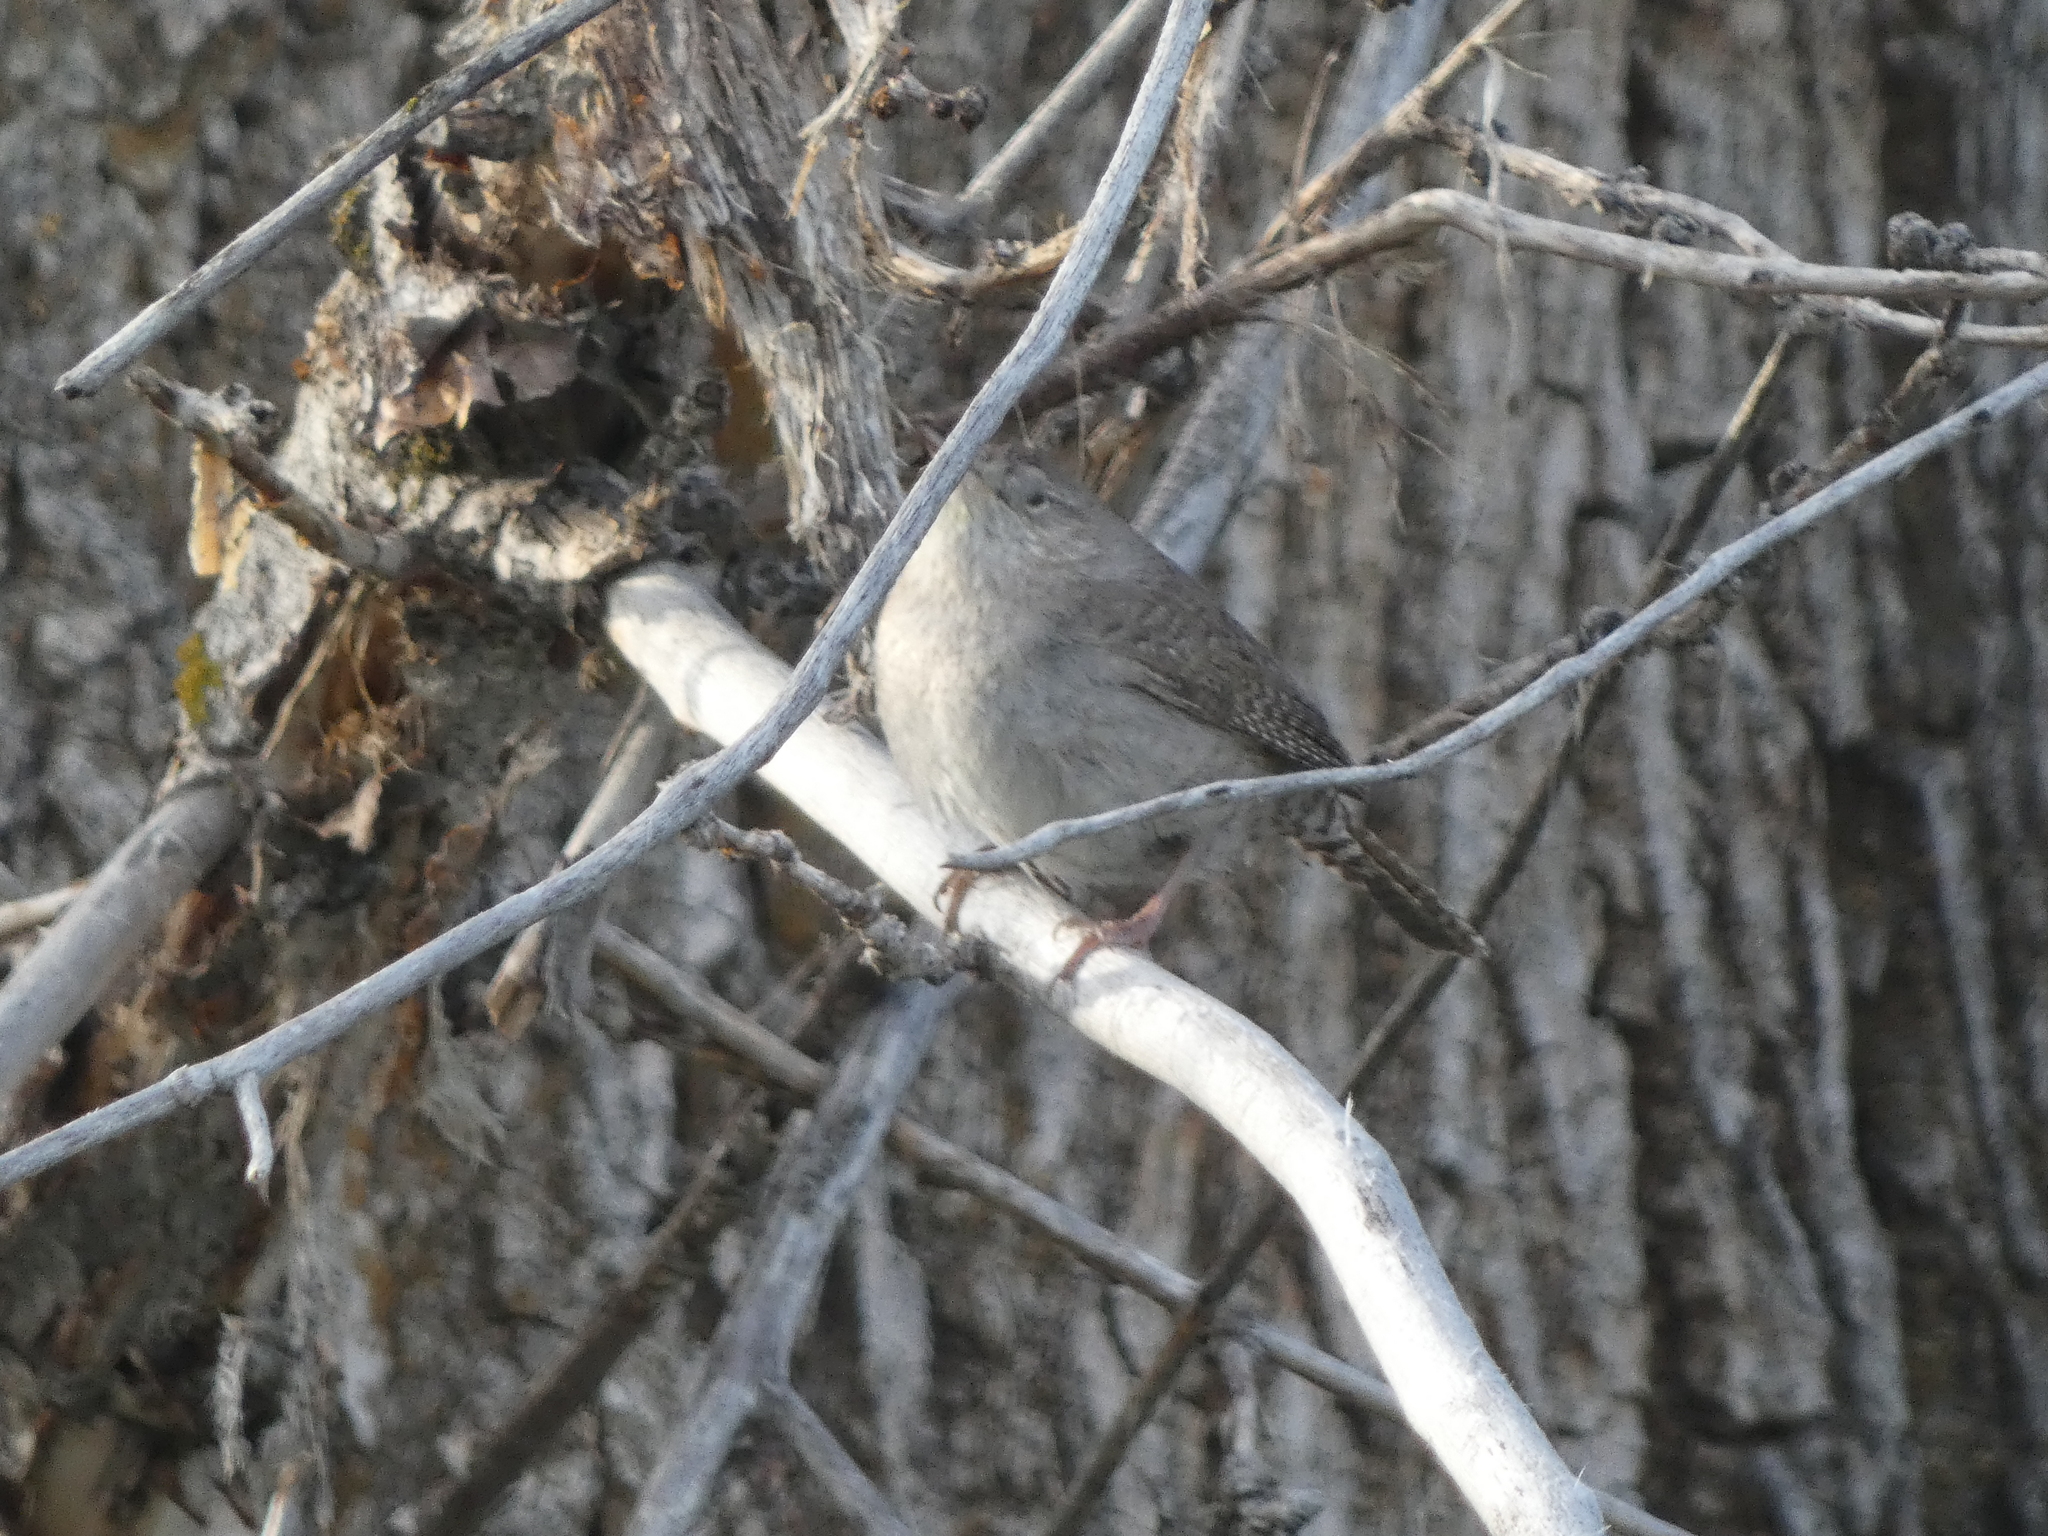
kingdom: Animalia
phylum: Chordata
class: Aves
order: Passeriformes
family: Troglodytidae
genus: Troglodytes
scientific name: Troglodytes aedon
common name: House wren
